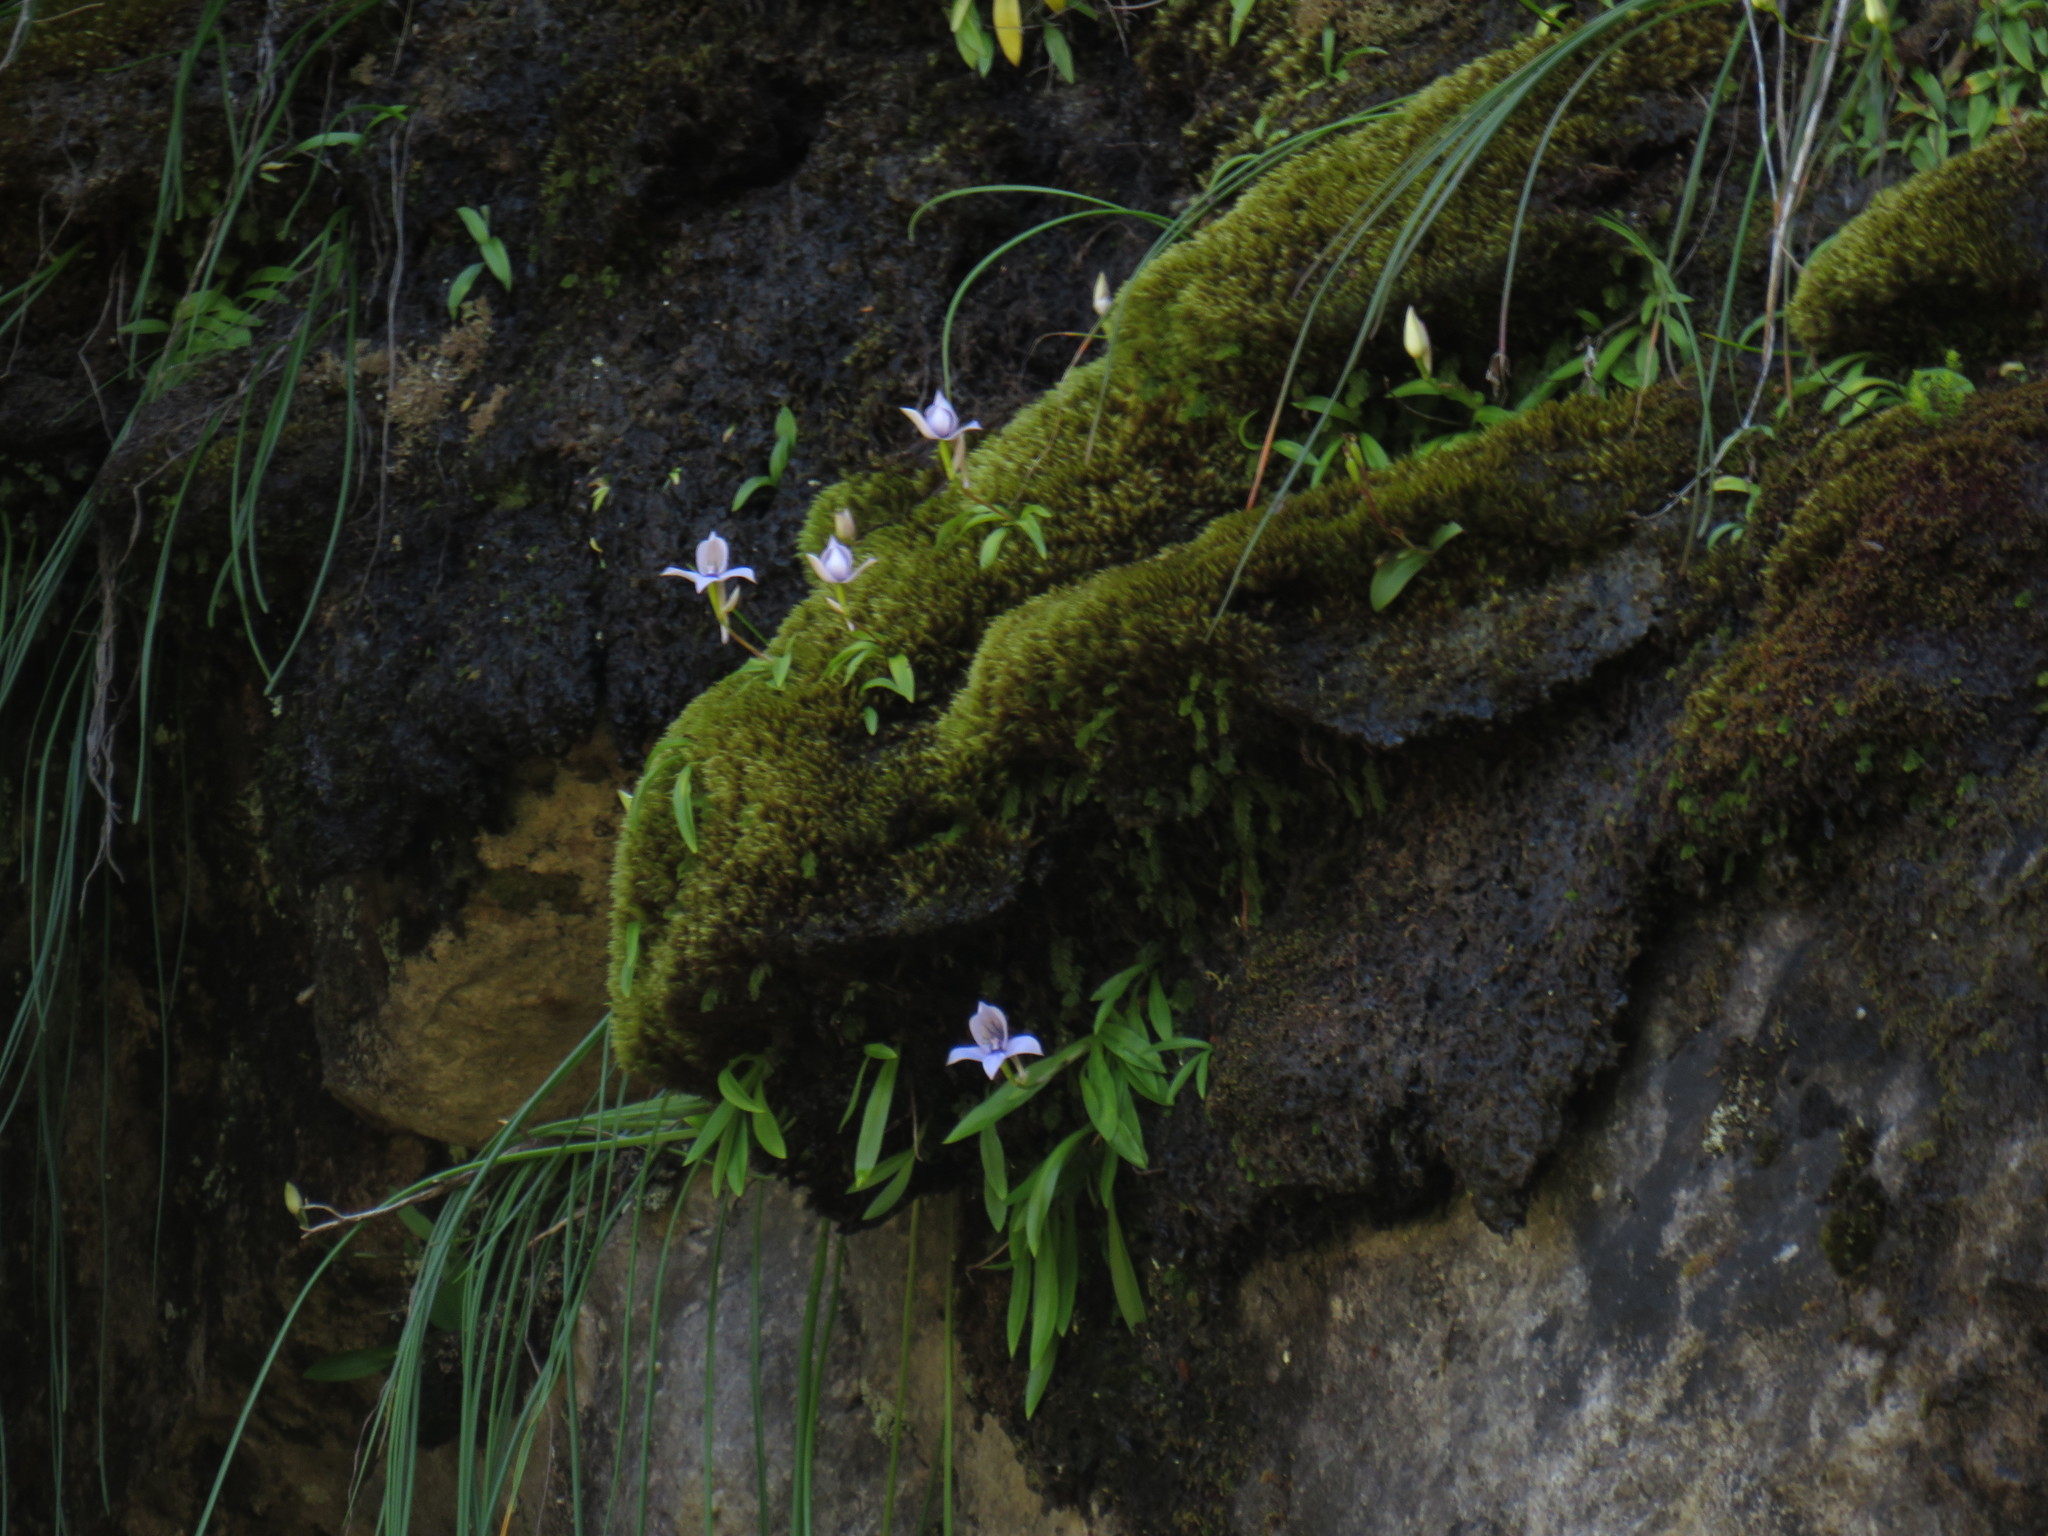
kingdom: Plantae
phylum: Tracheophyta
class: Liliopsida
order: Asparagales
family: Orchidaceae
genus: Disa
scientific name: Disa longicornu
